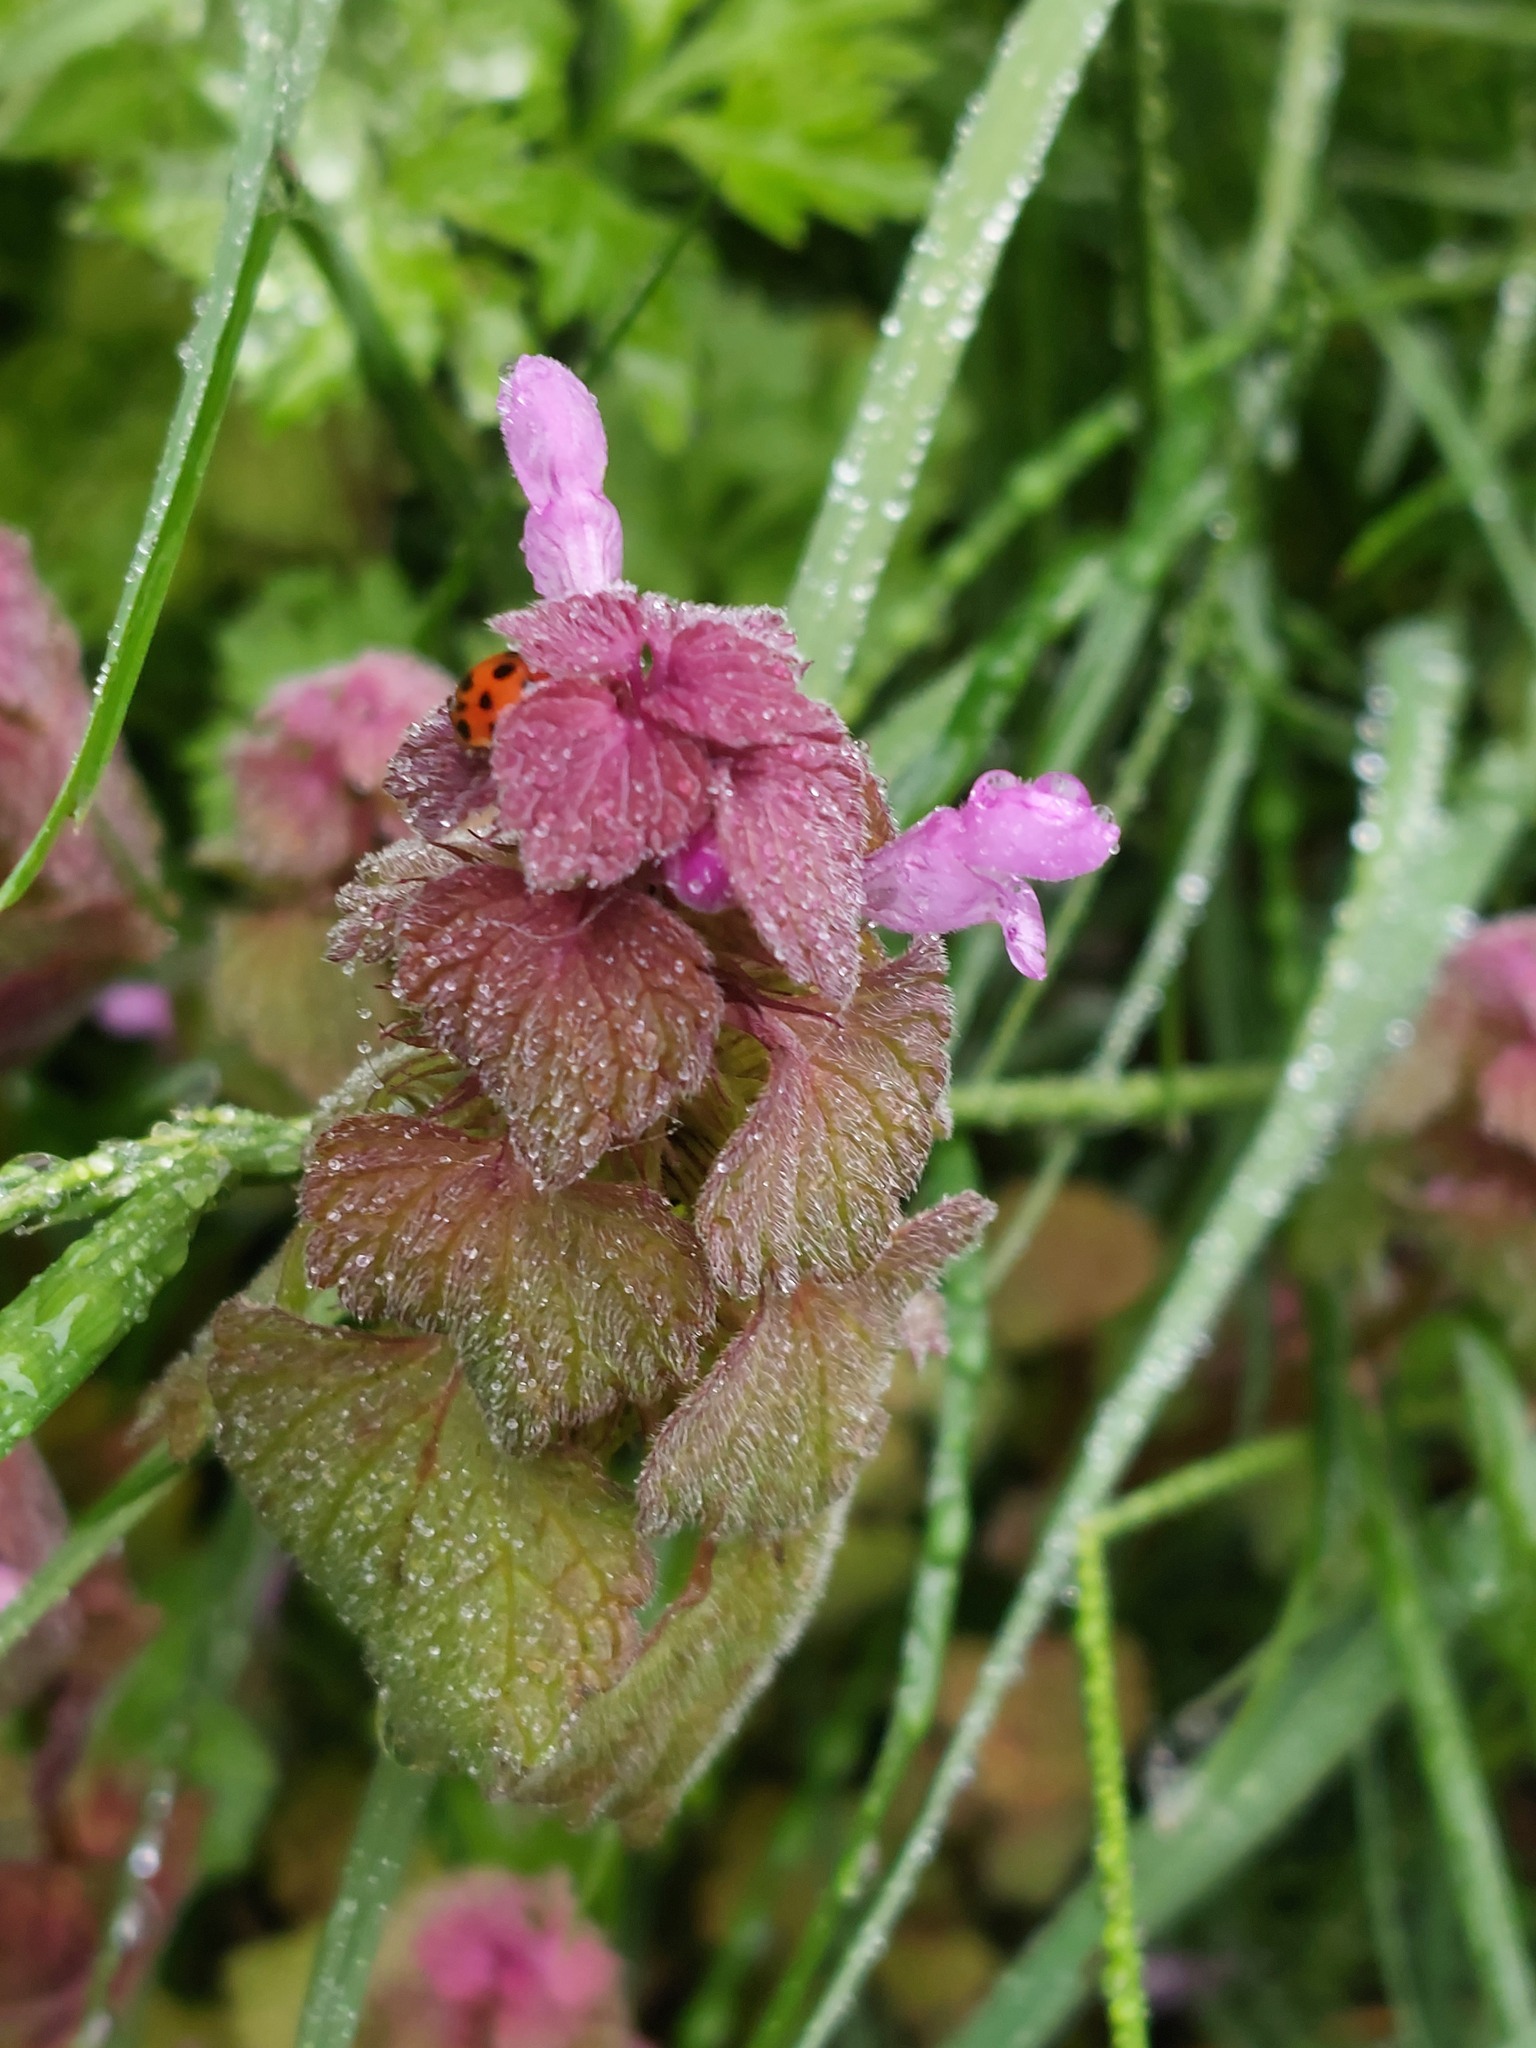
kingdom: Plantae
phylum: Tracheophyta
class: Magnoliopsida
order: Lamiales
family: Lamiaceae
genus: Lamium
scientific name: Lamium purpureum
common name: Red dead-nettle
